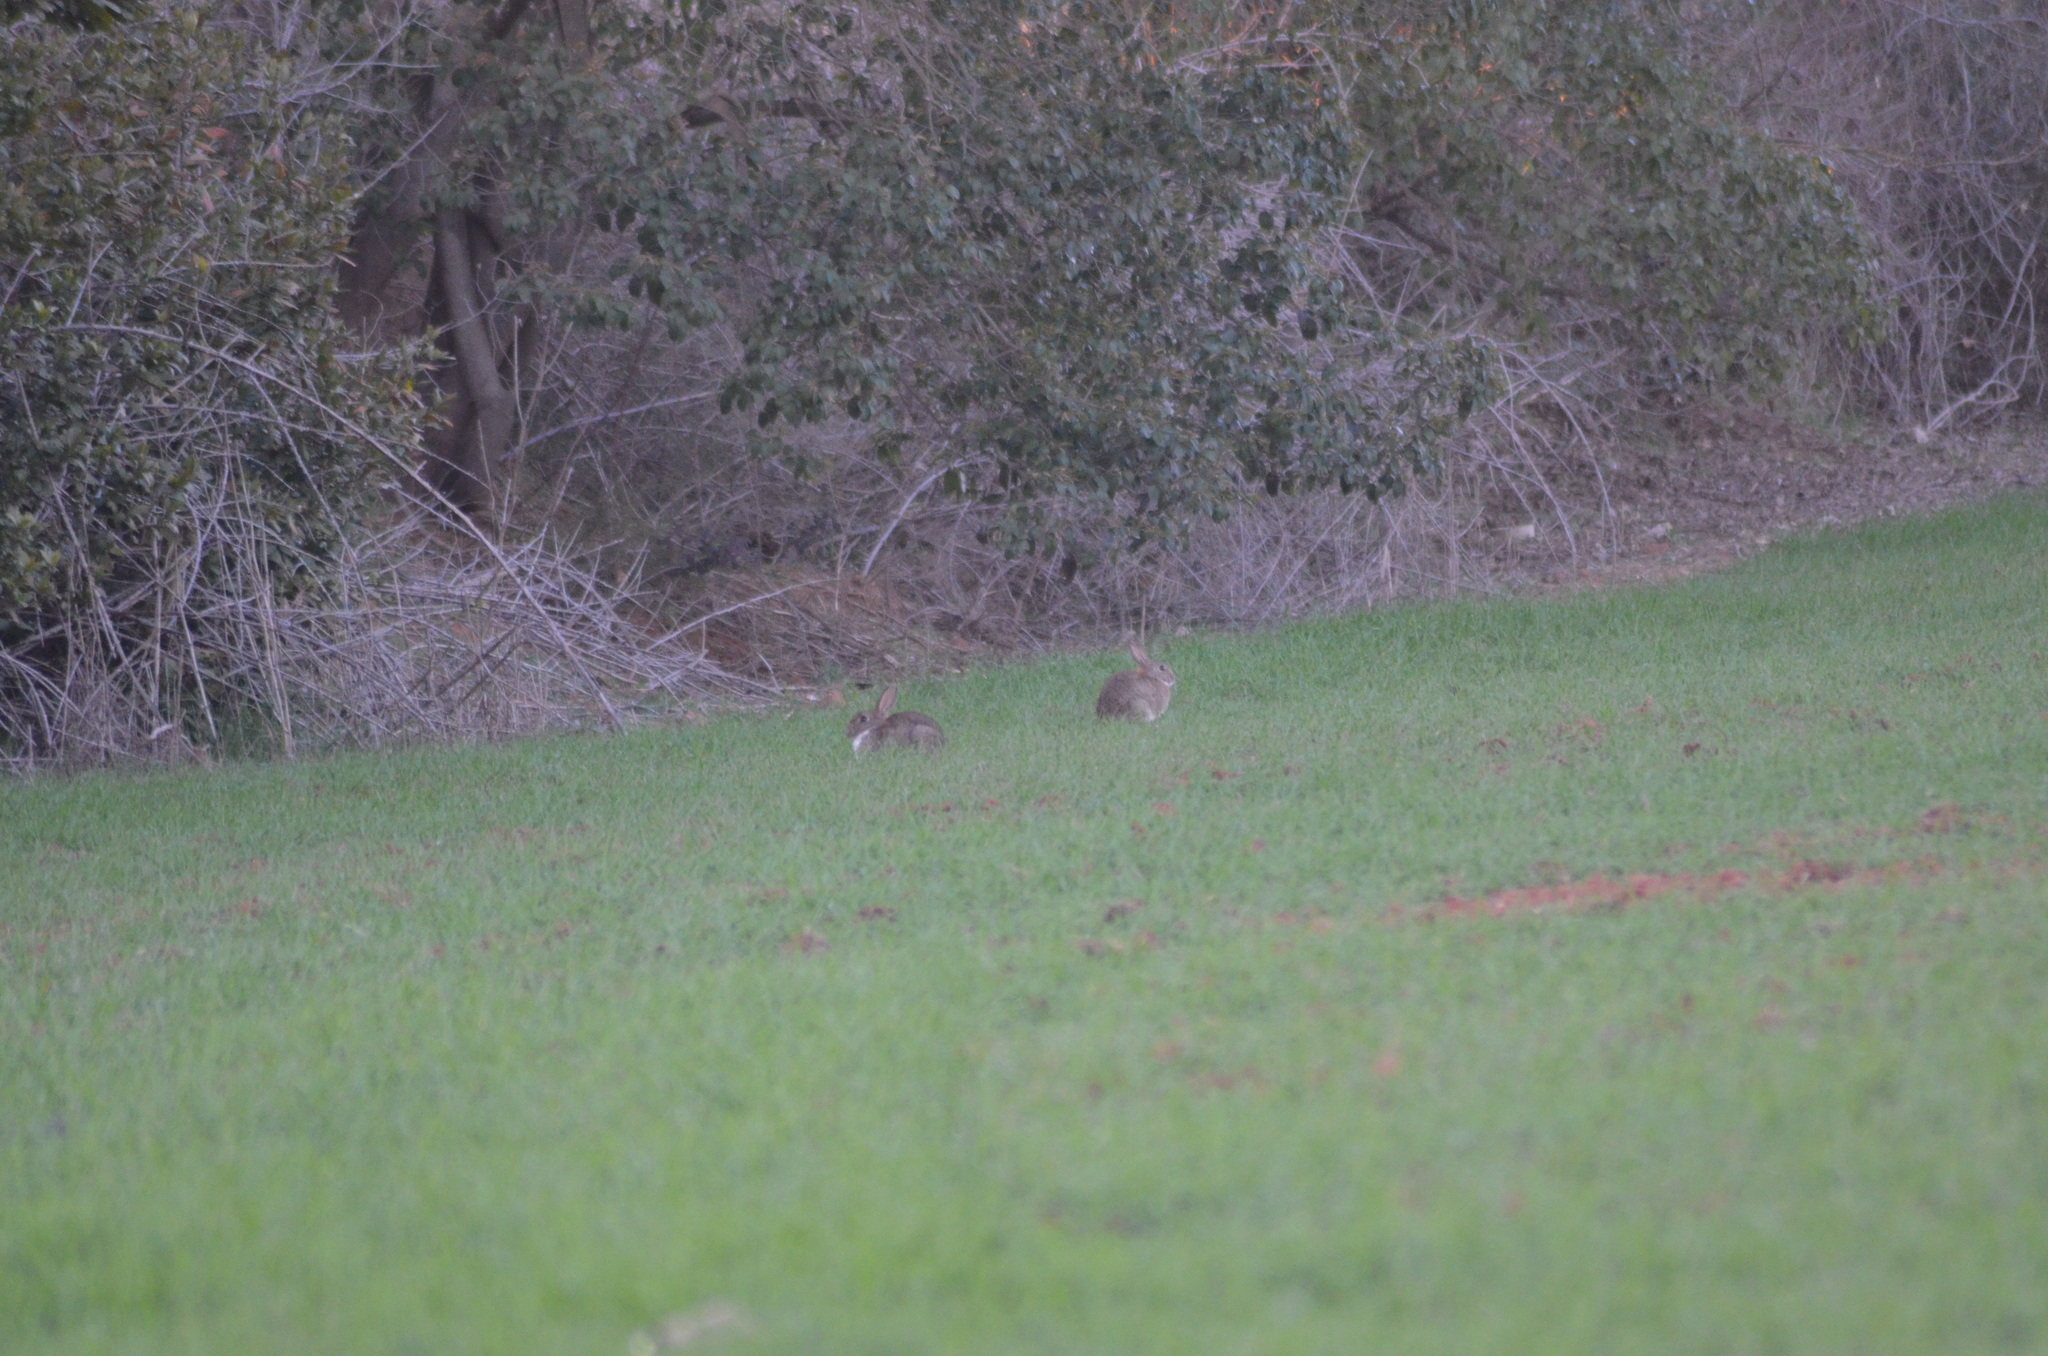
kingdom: Animalia
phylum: Chordata
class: Mammalia
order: Lagomorpha
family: Leporidae
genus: Oryctolagus
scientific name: Oryctolagus cuniculus
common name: European rabbit
